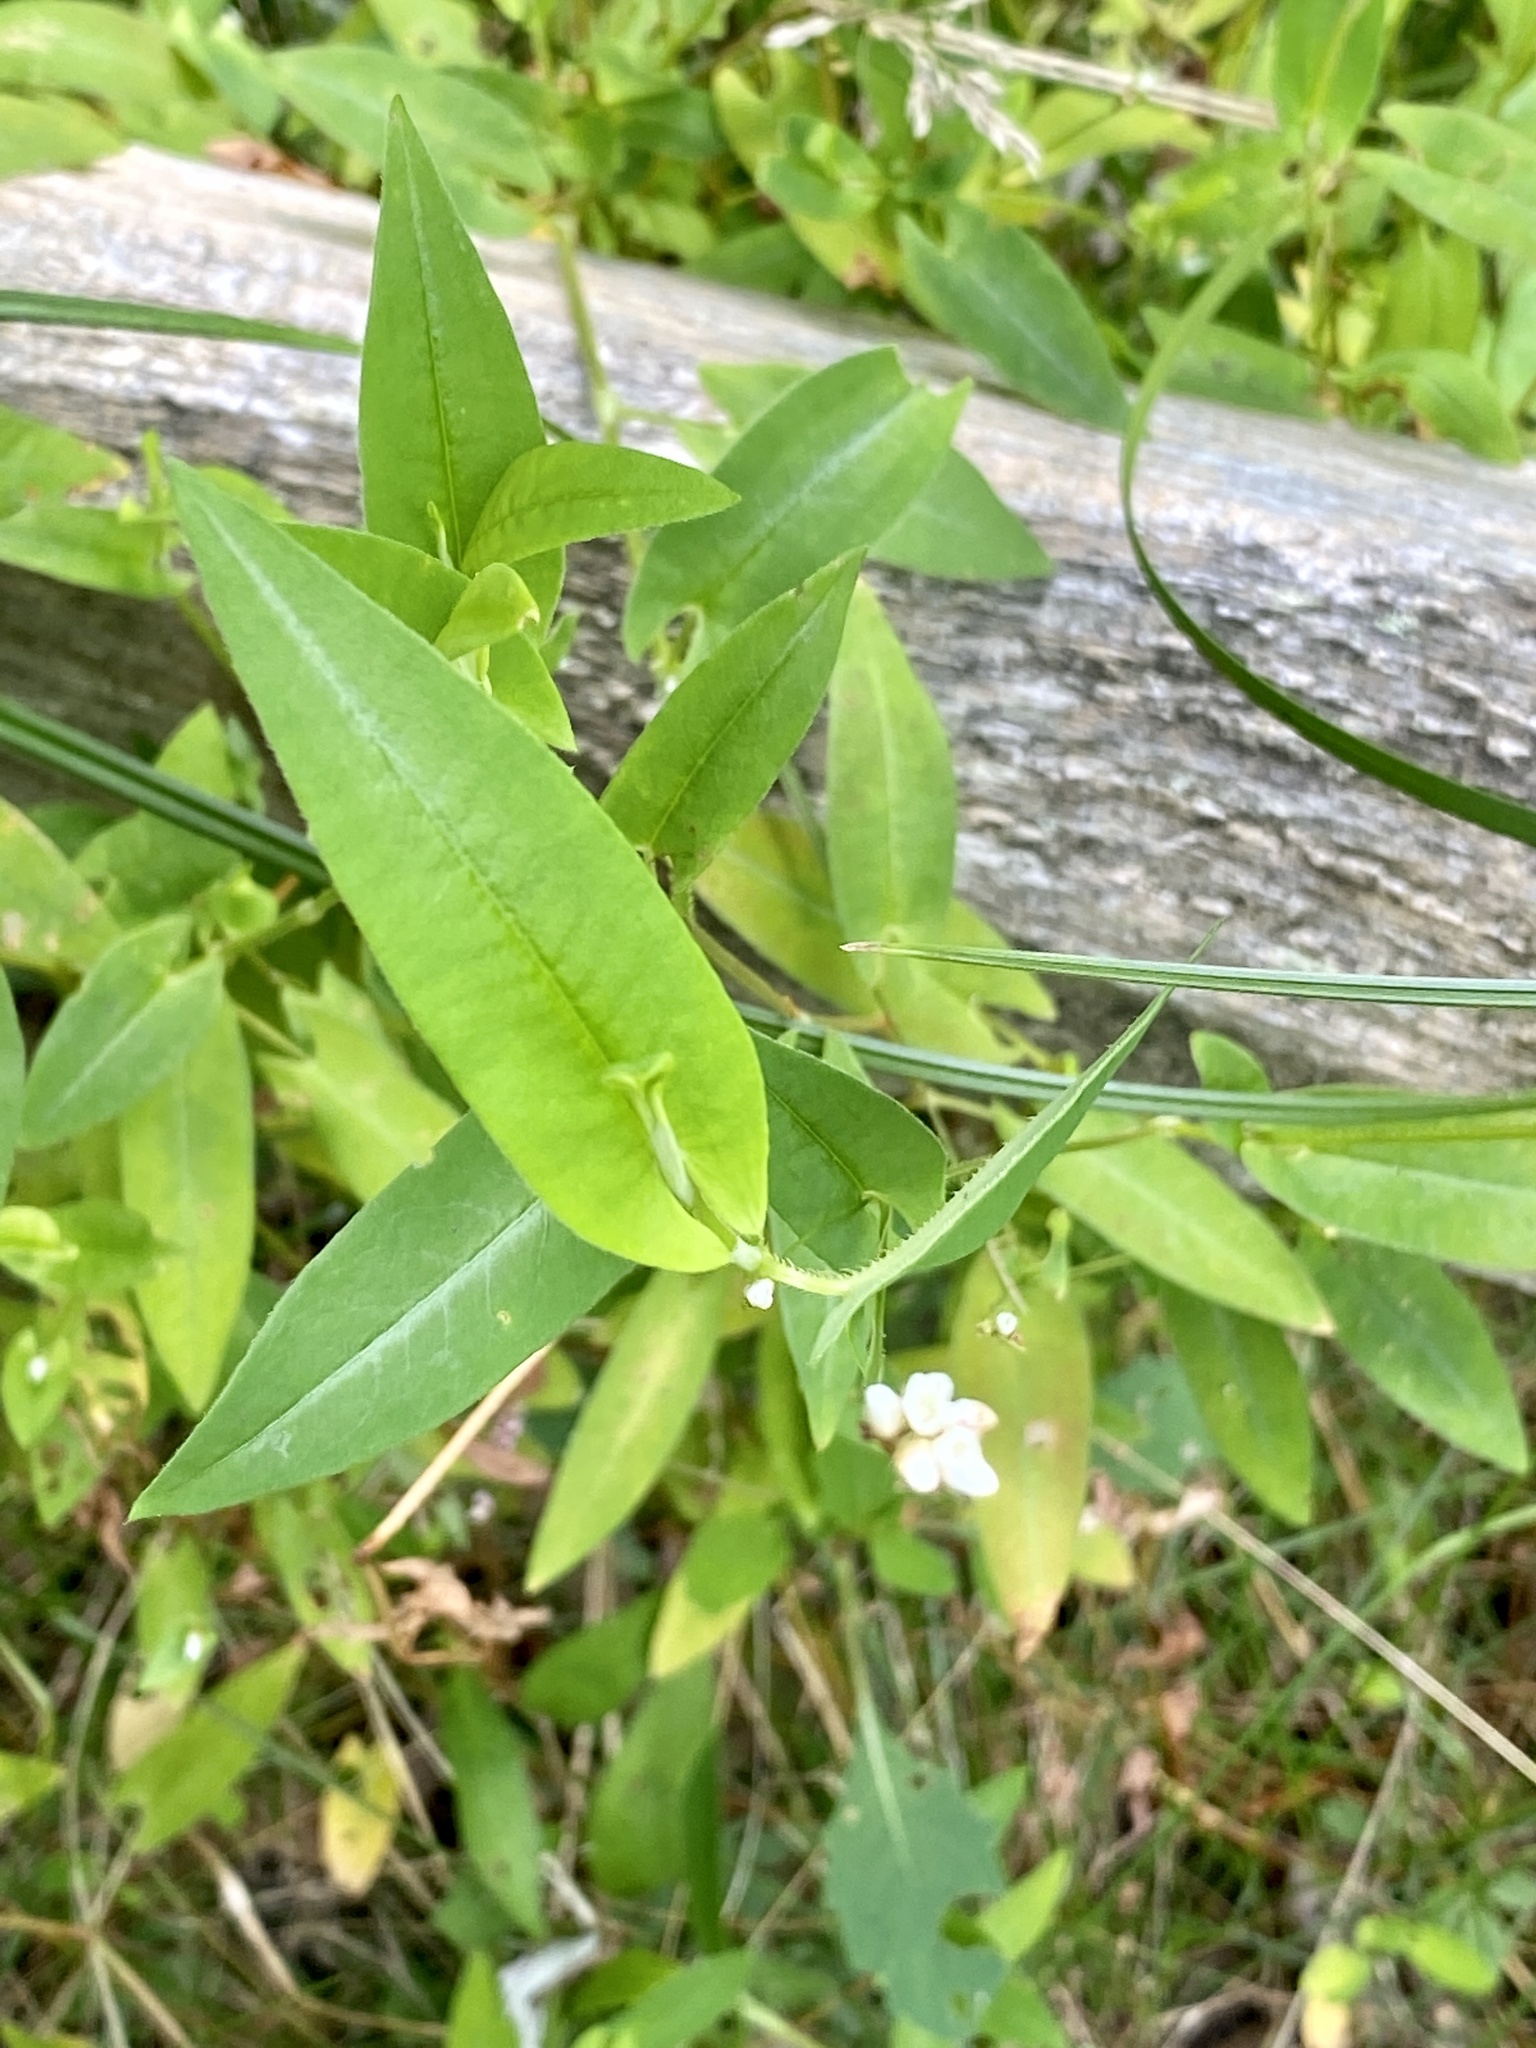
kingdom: Plantae
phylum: Tracheophyta
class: Magnoliopsida
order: Caryophyllales
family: Polygonaceae
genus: Persicaria
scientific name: Persicaria sagittata
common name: American tearthumb
